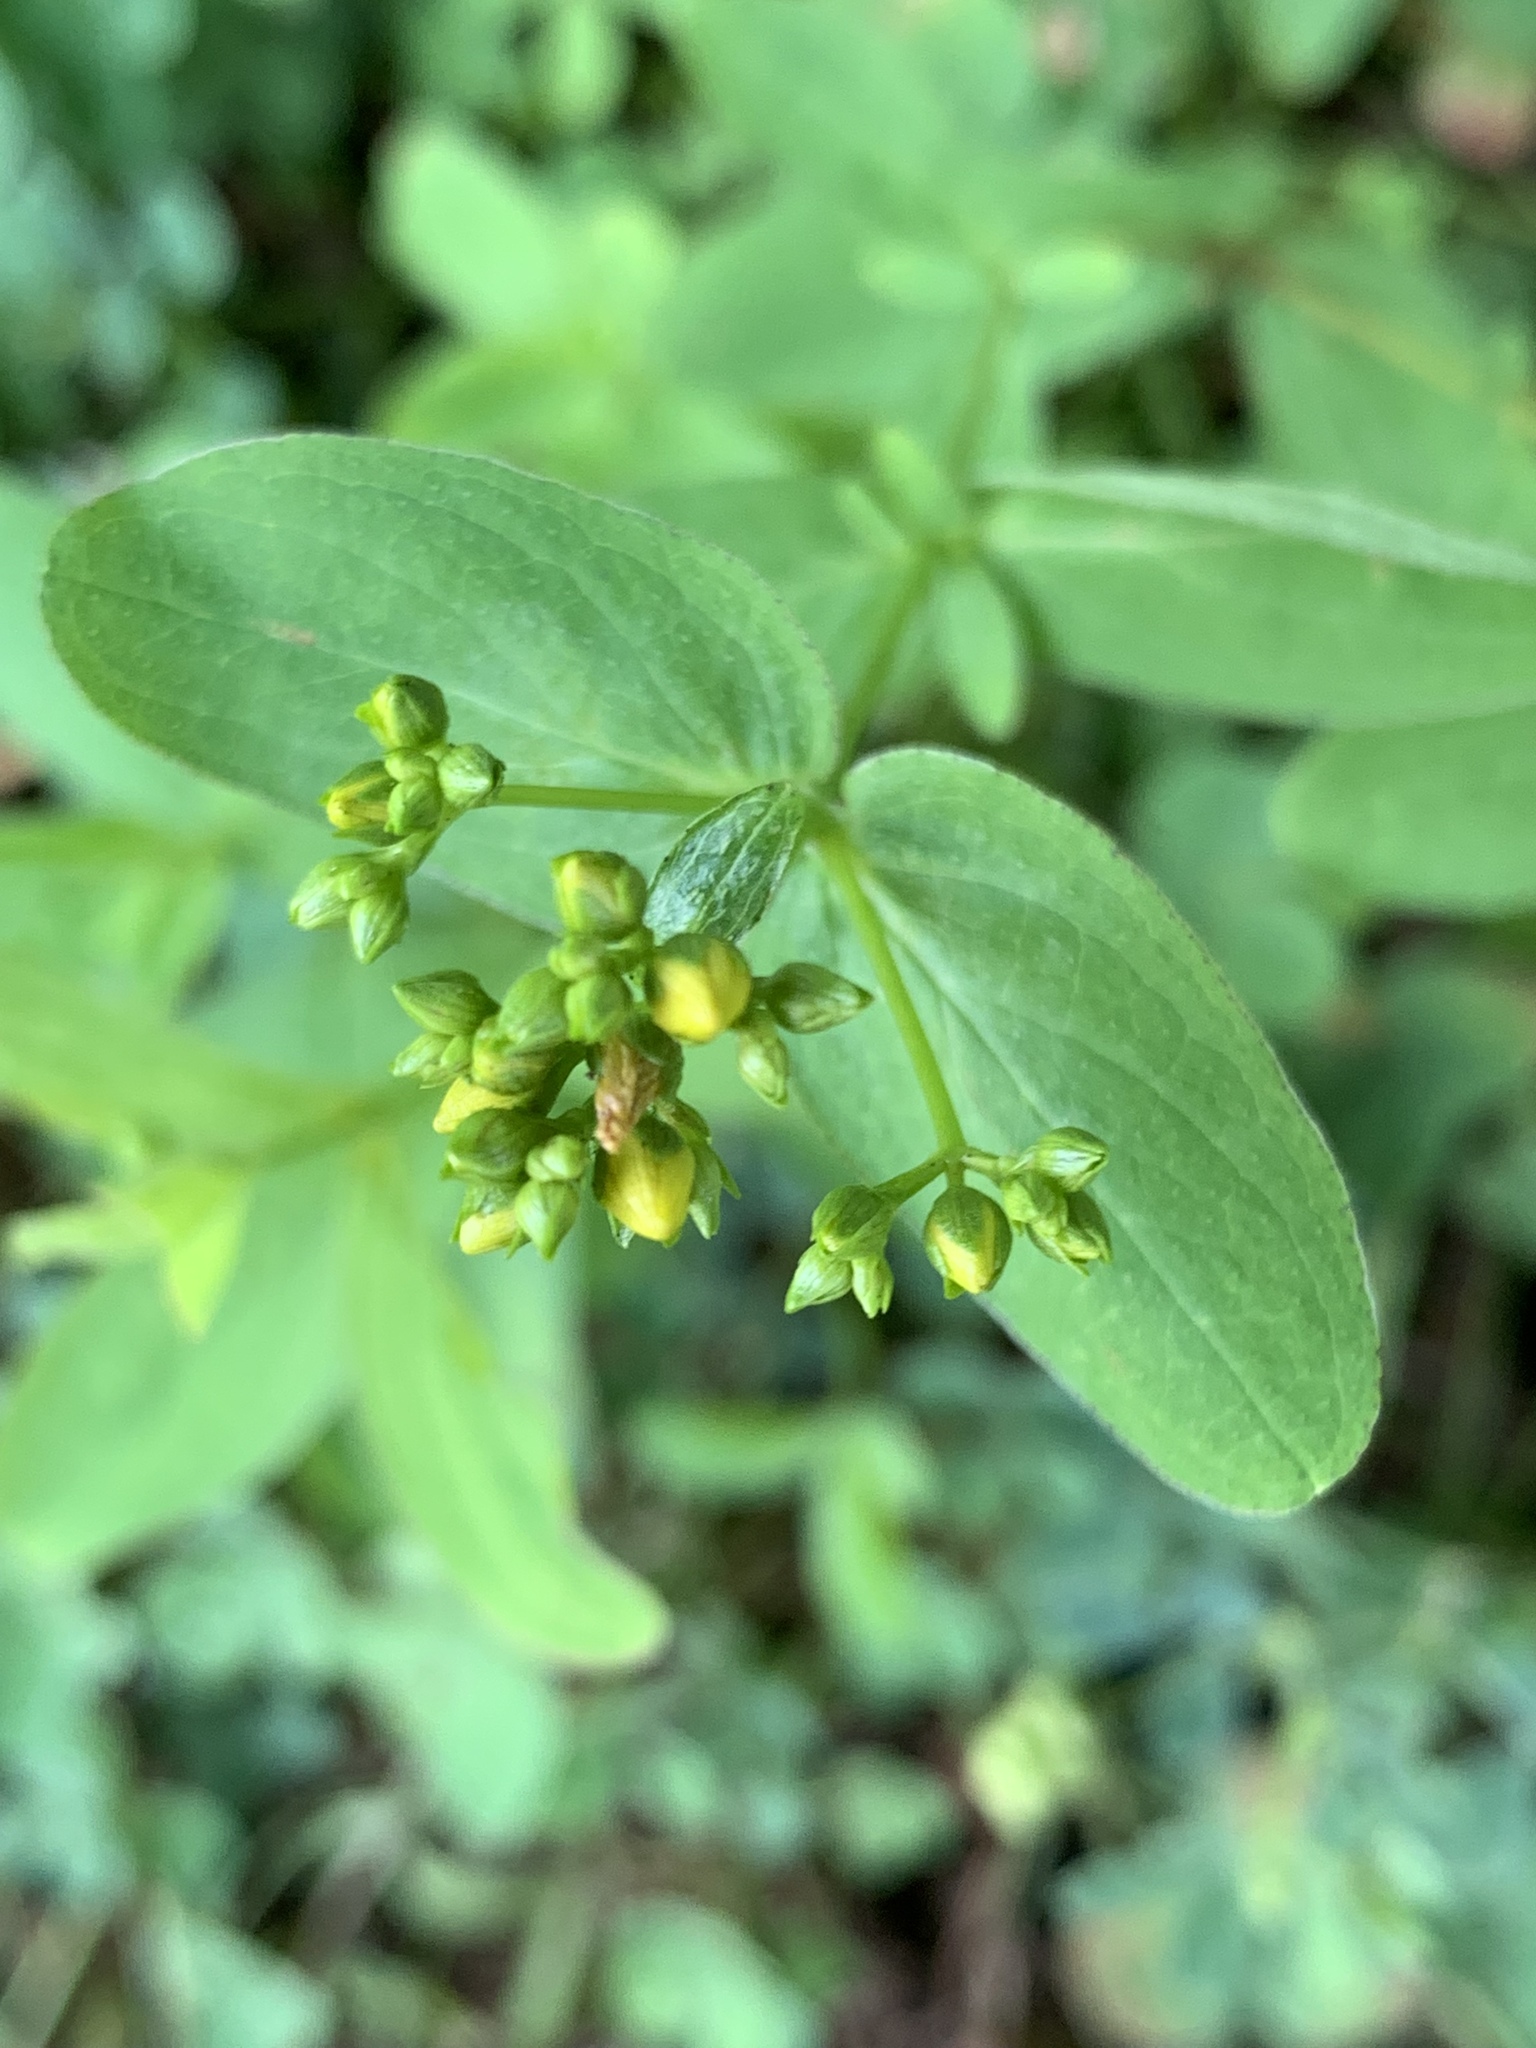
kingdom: Plantae
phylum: Tracheophyta
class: Magnoliopsida
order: Malpighiales
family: Hypericaceae
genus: Hypericum
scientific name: Hypericum punctatum
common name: Spotted st. john's-wort
